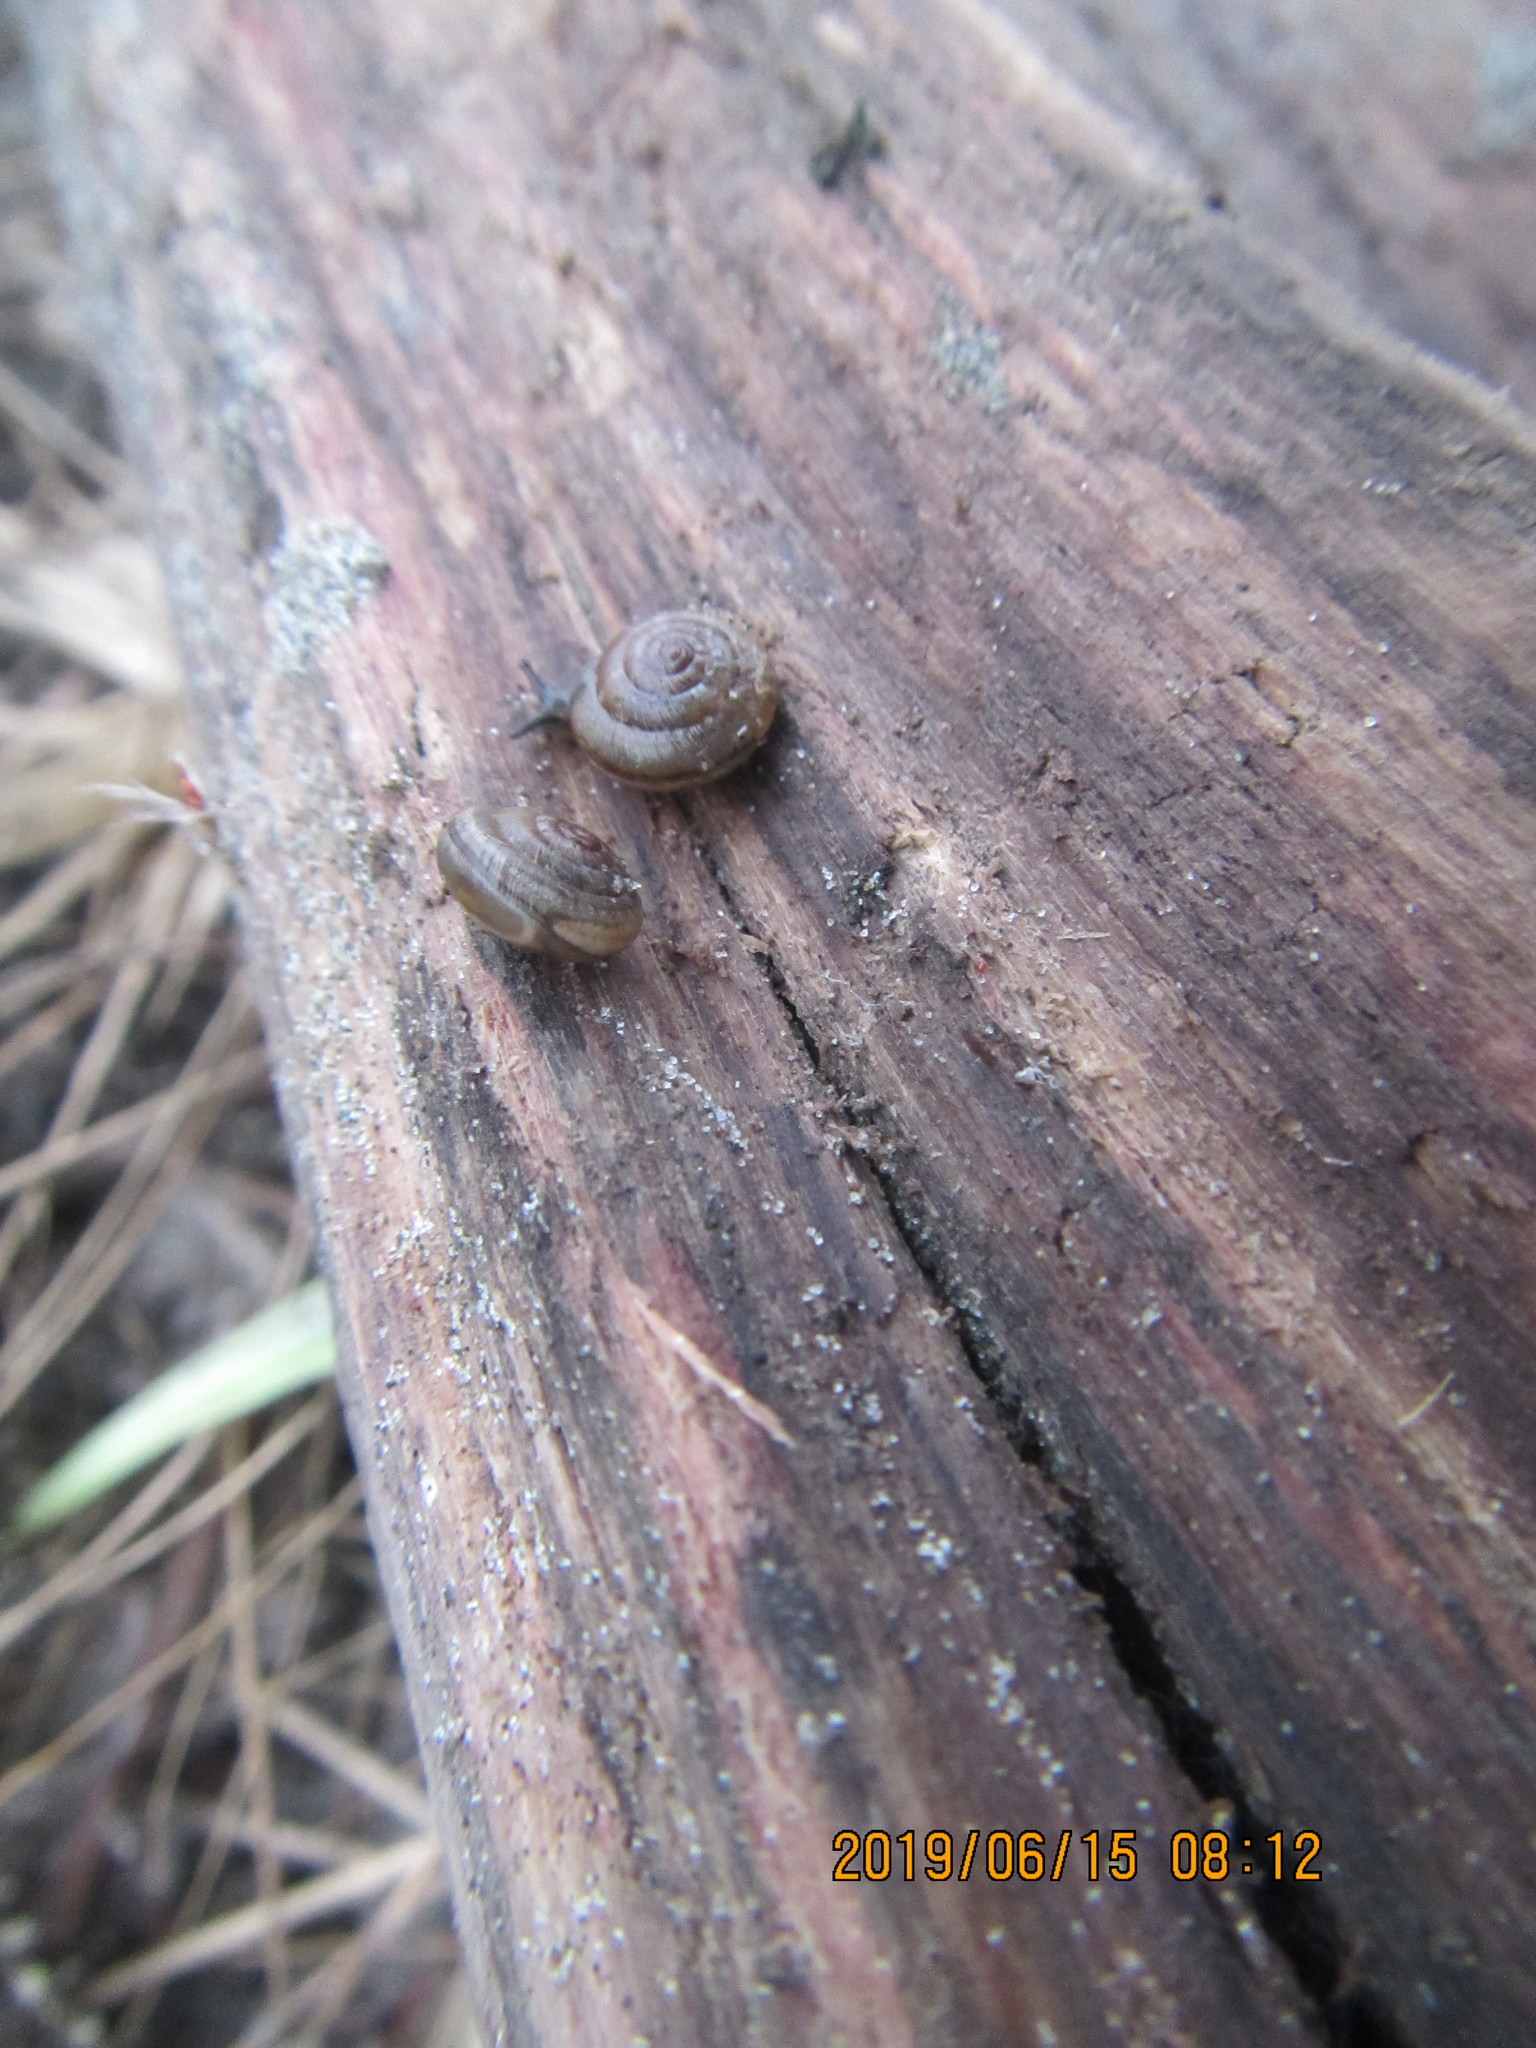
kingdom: Animalia
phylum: Mollusca
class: Gastropoda
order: Stylommatophora
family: Geomitridae
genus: Xeroplexa
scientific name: Xeroplexa intersecta
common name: Wrinkled snail
